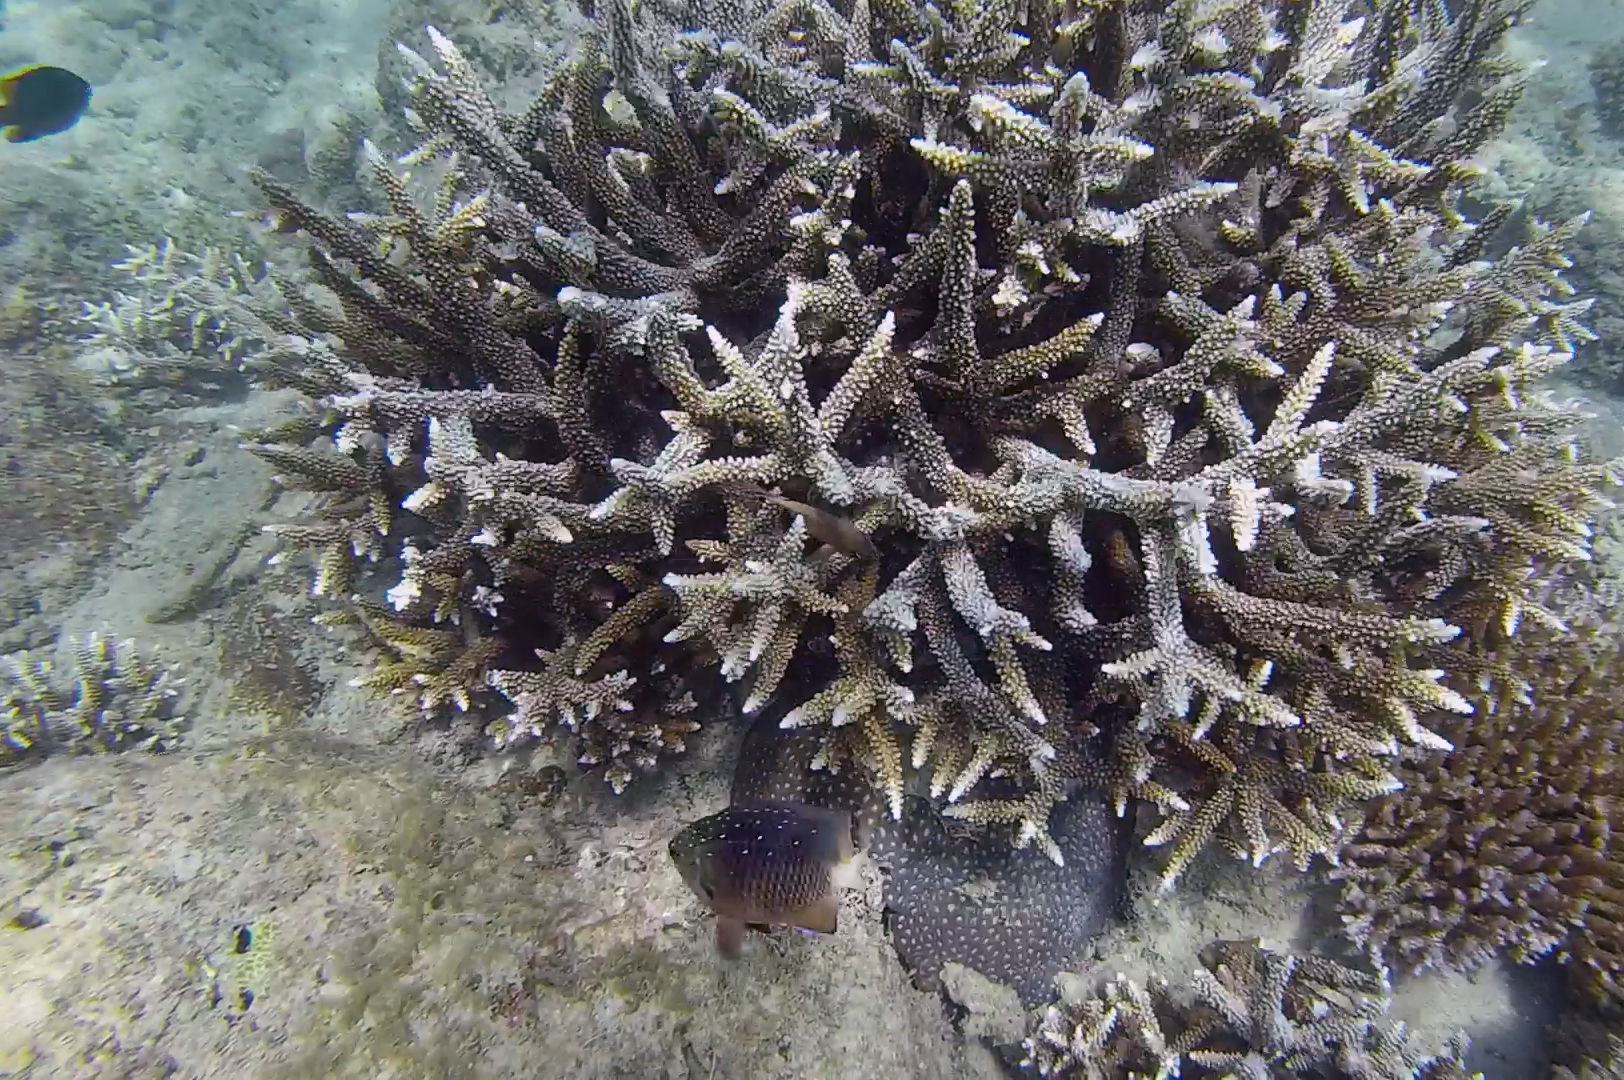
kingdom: Animalia
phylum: Chordata
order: Perciformes
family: Pomacentridae
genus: Plectroglyphidodon
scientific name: Plectroglyphidodon lacrymatus
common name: Jewel damsel
